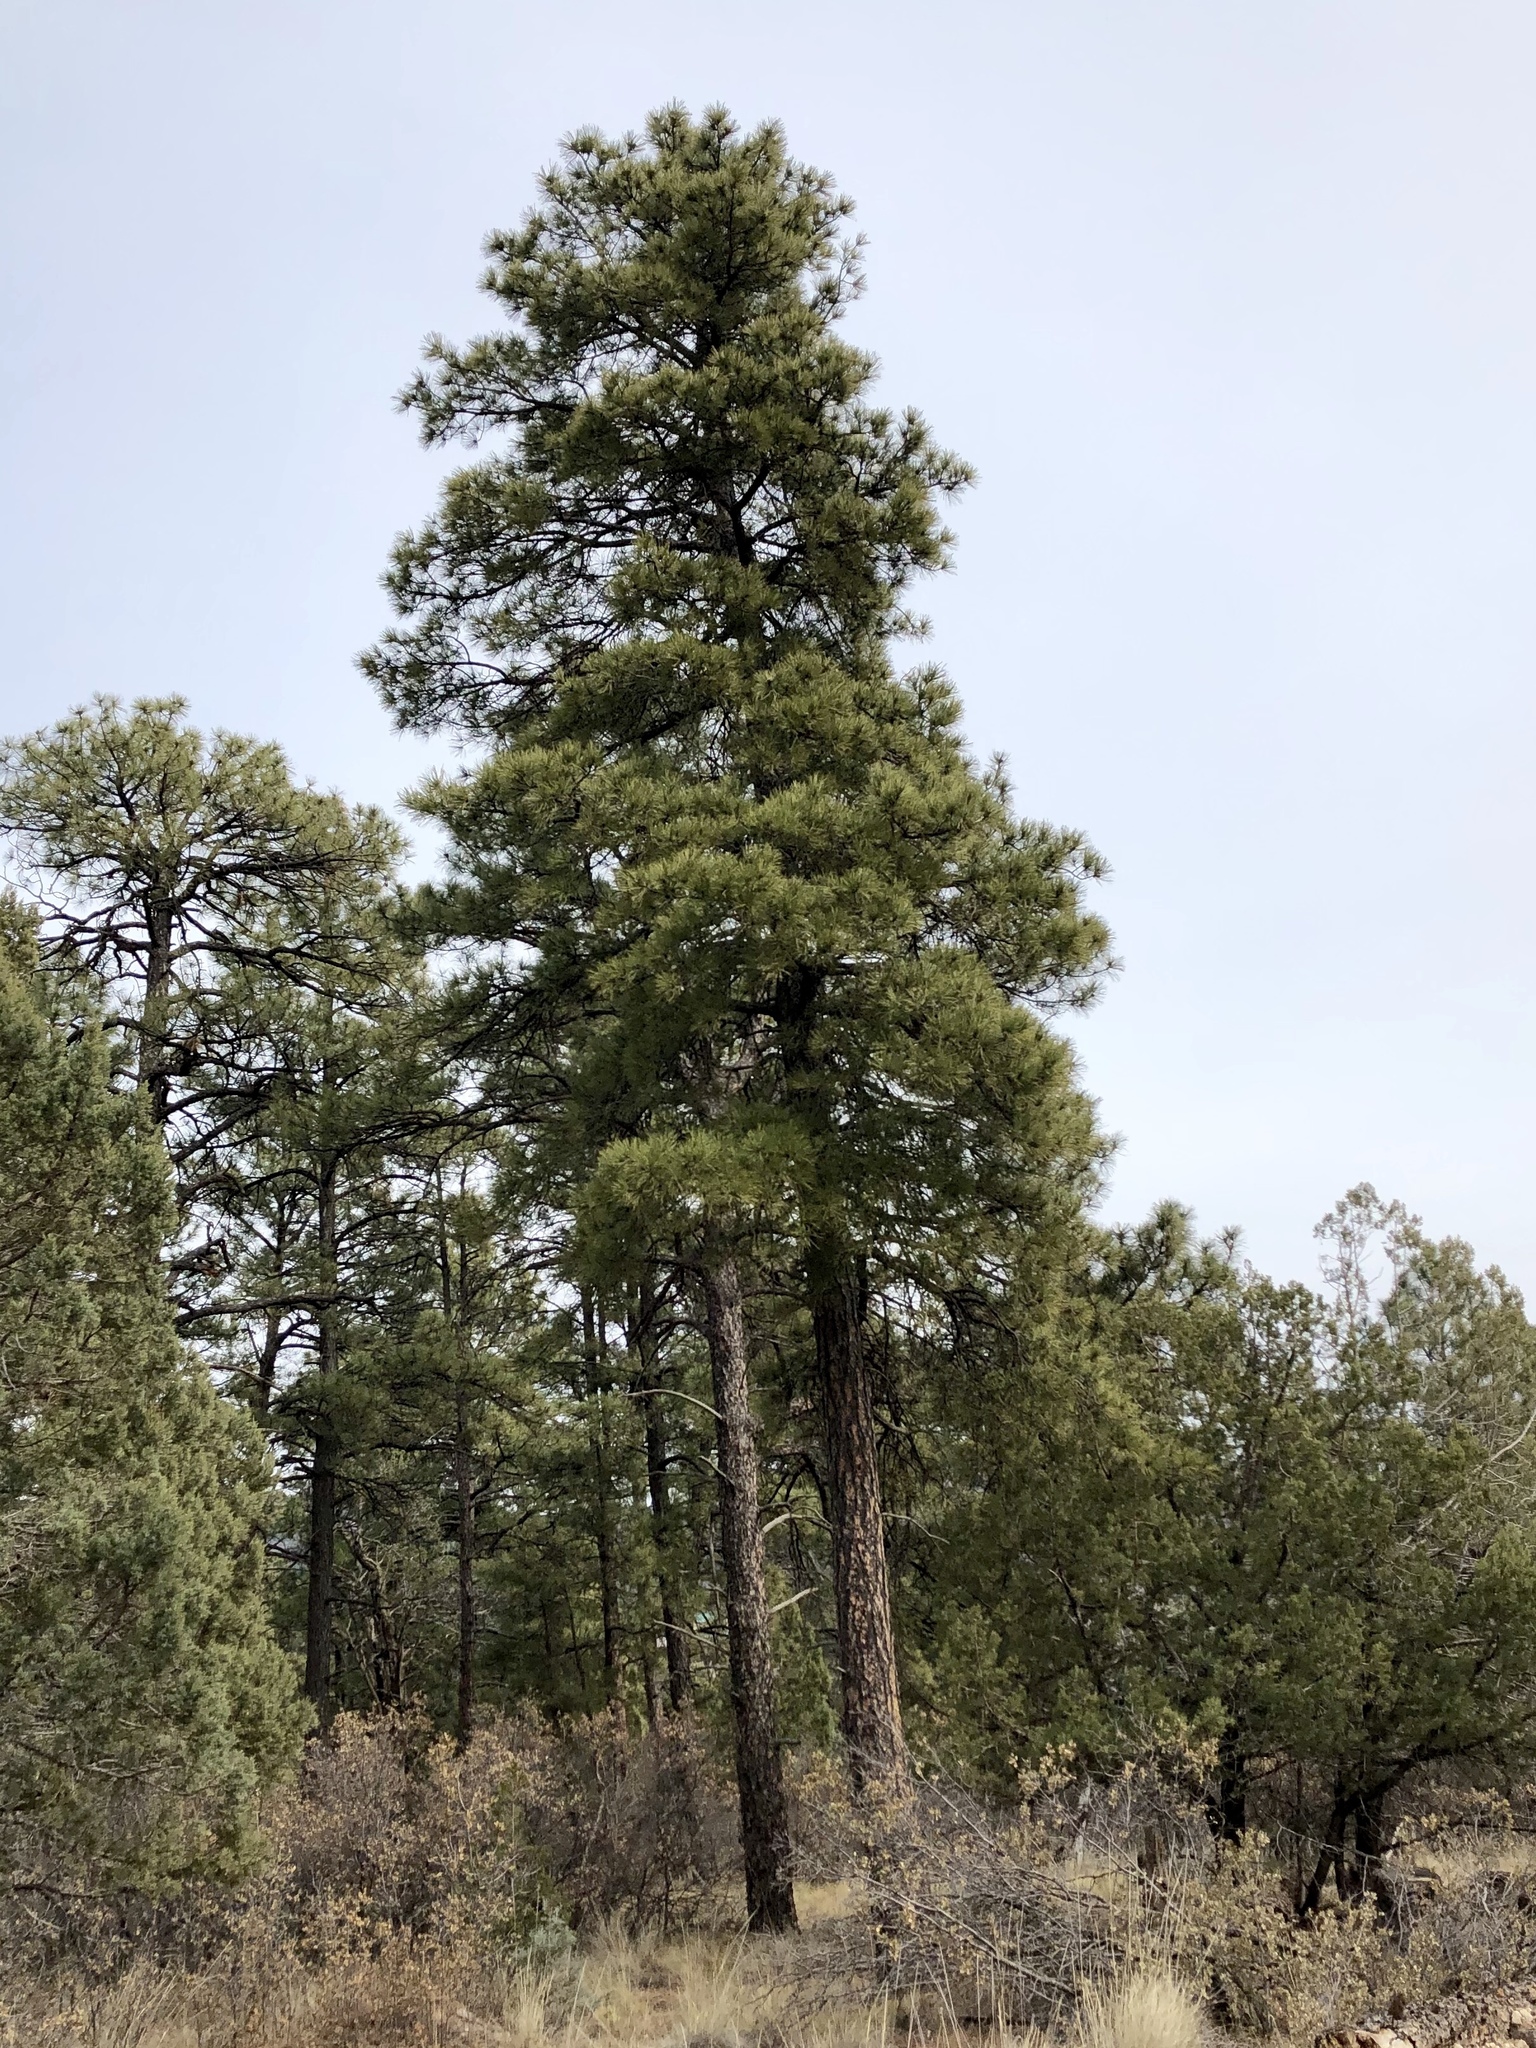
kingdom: Plantae
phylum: Tracheophyta
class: Pinopsida
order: Pinales
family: Pinaceae
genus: Pinus
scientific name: Pinus ponderosa
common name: Western yellow-pine
